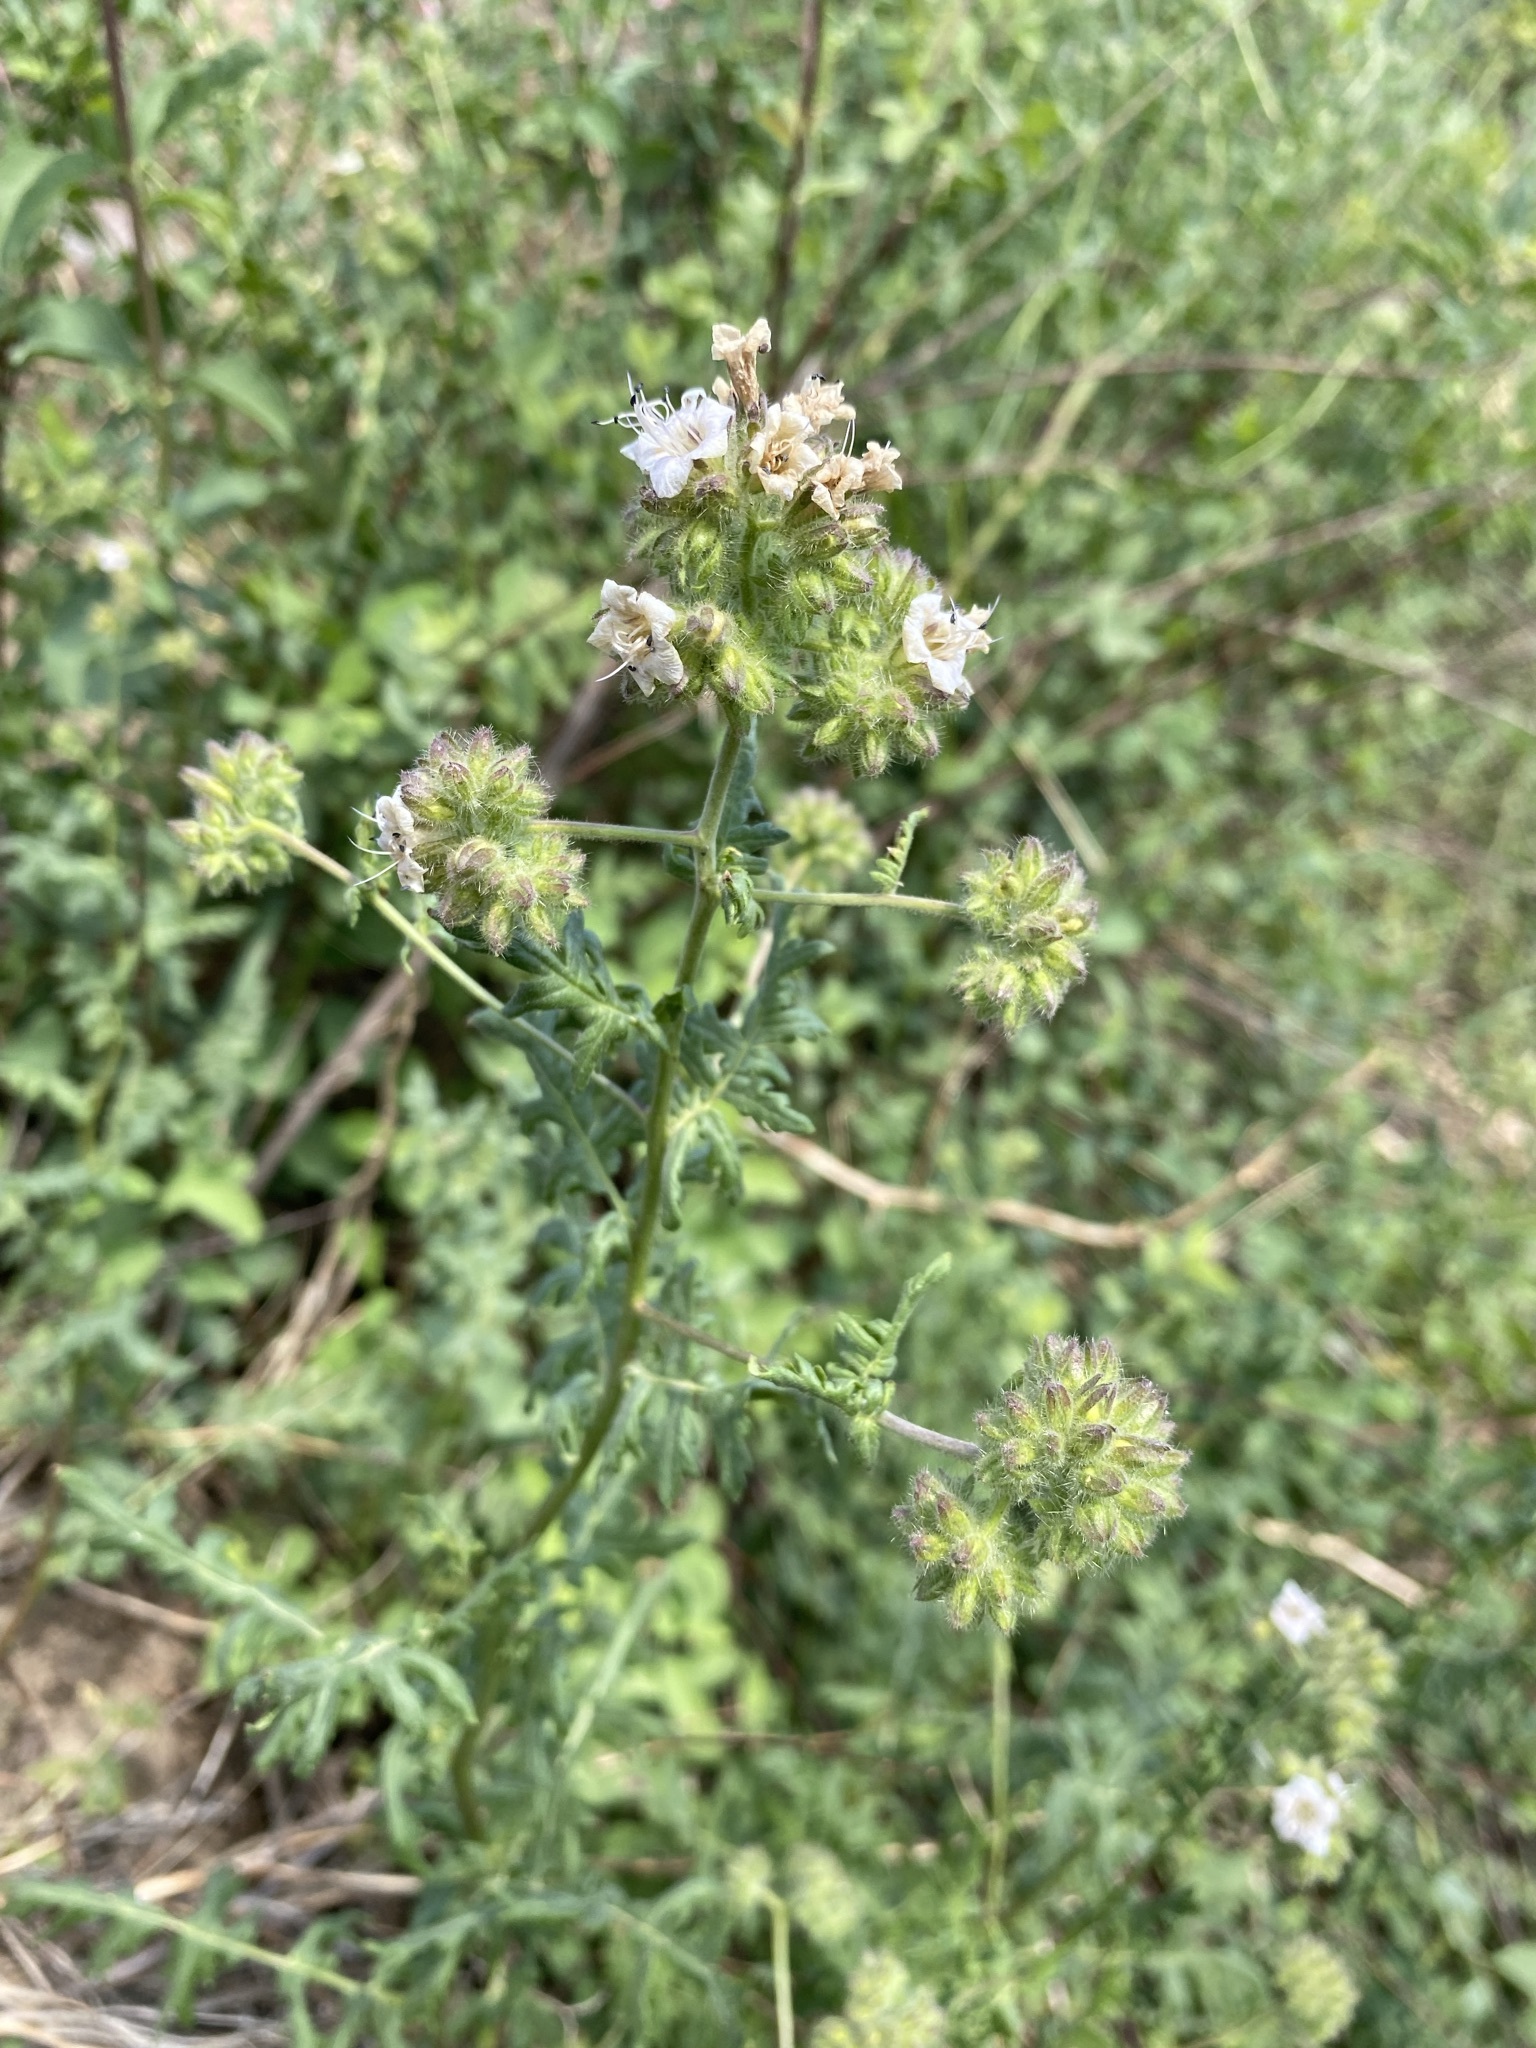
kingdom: Plantae
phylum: Tracheophyta
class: Magnoliopsida
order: Boraginales
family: Hydrophyllaceae
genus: Phacelia
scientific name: Phacelia ramosissima
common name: Branching phacelia
